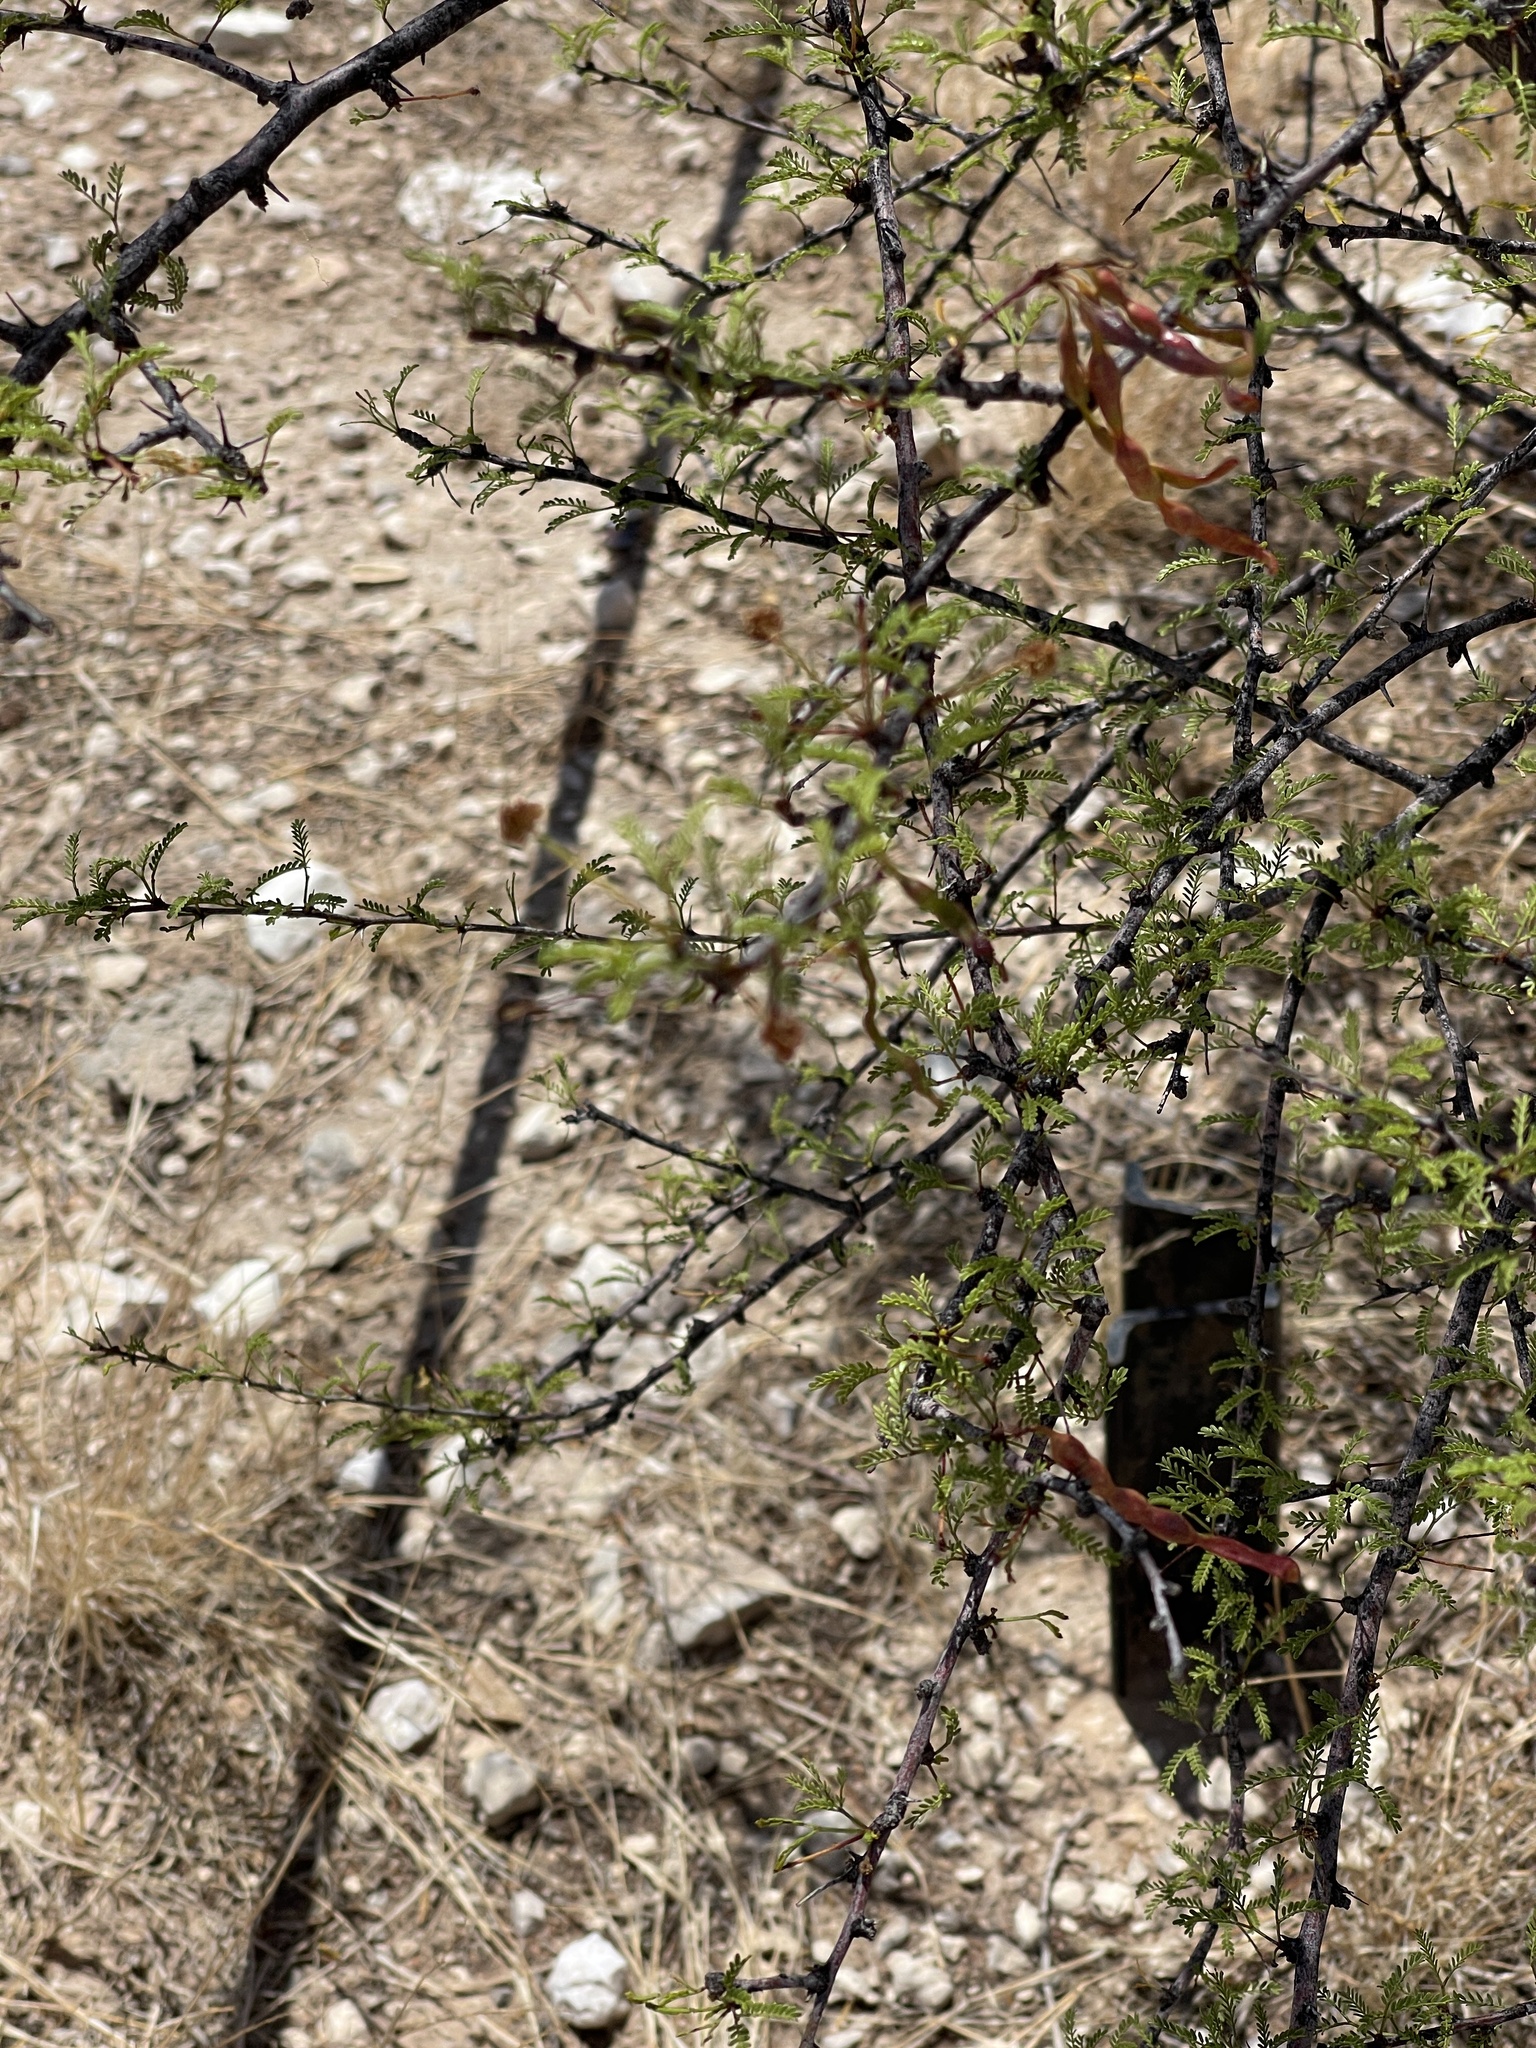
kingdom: Plantae
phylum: Tracheophyta
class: Magnoliopsida
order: Fabales
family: Fabaceae
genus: Vachellia
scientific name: Vachellia vernicosa
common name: Viscid acacia
